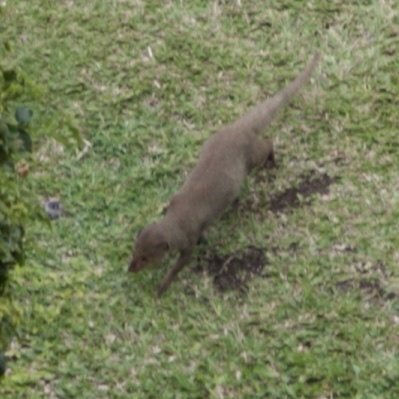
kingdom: Animalia
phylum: Chordata
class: Mammalia
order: Carnivora
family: Herpestidae
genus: Herpestes
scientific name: Herpestes javanicus
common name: Small asian mongoose
